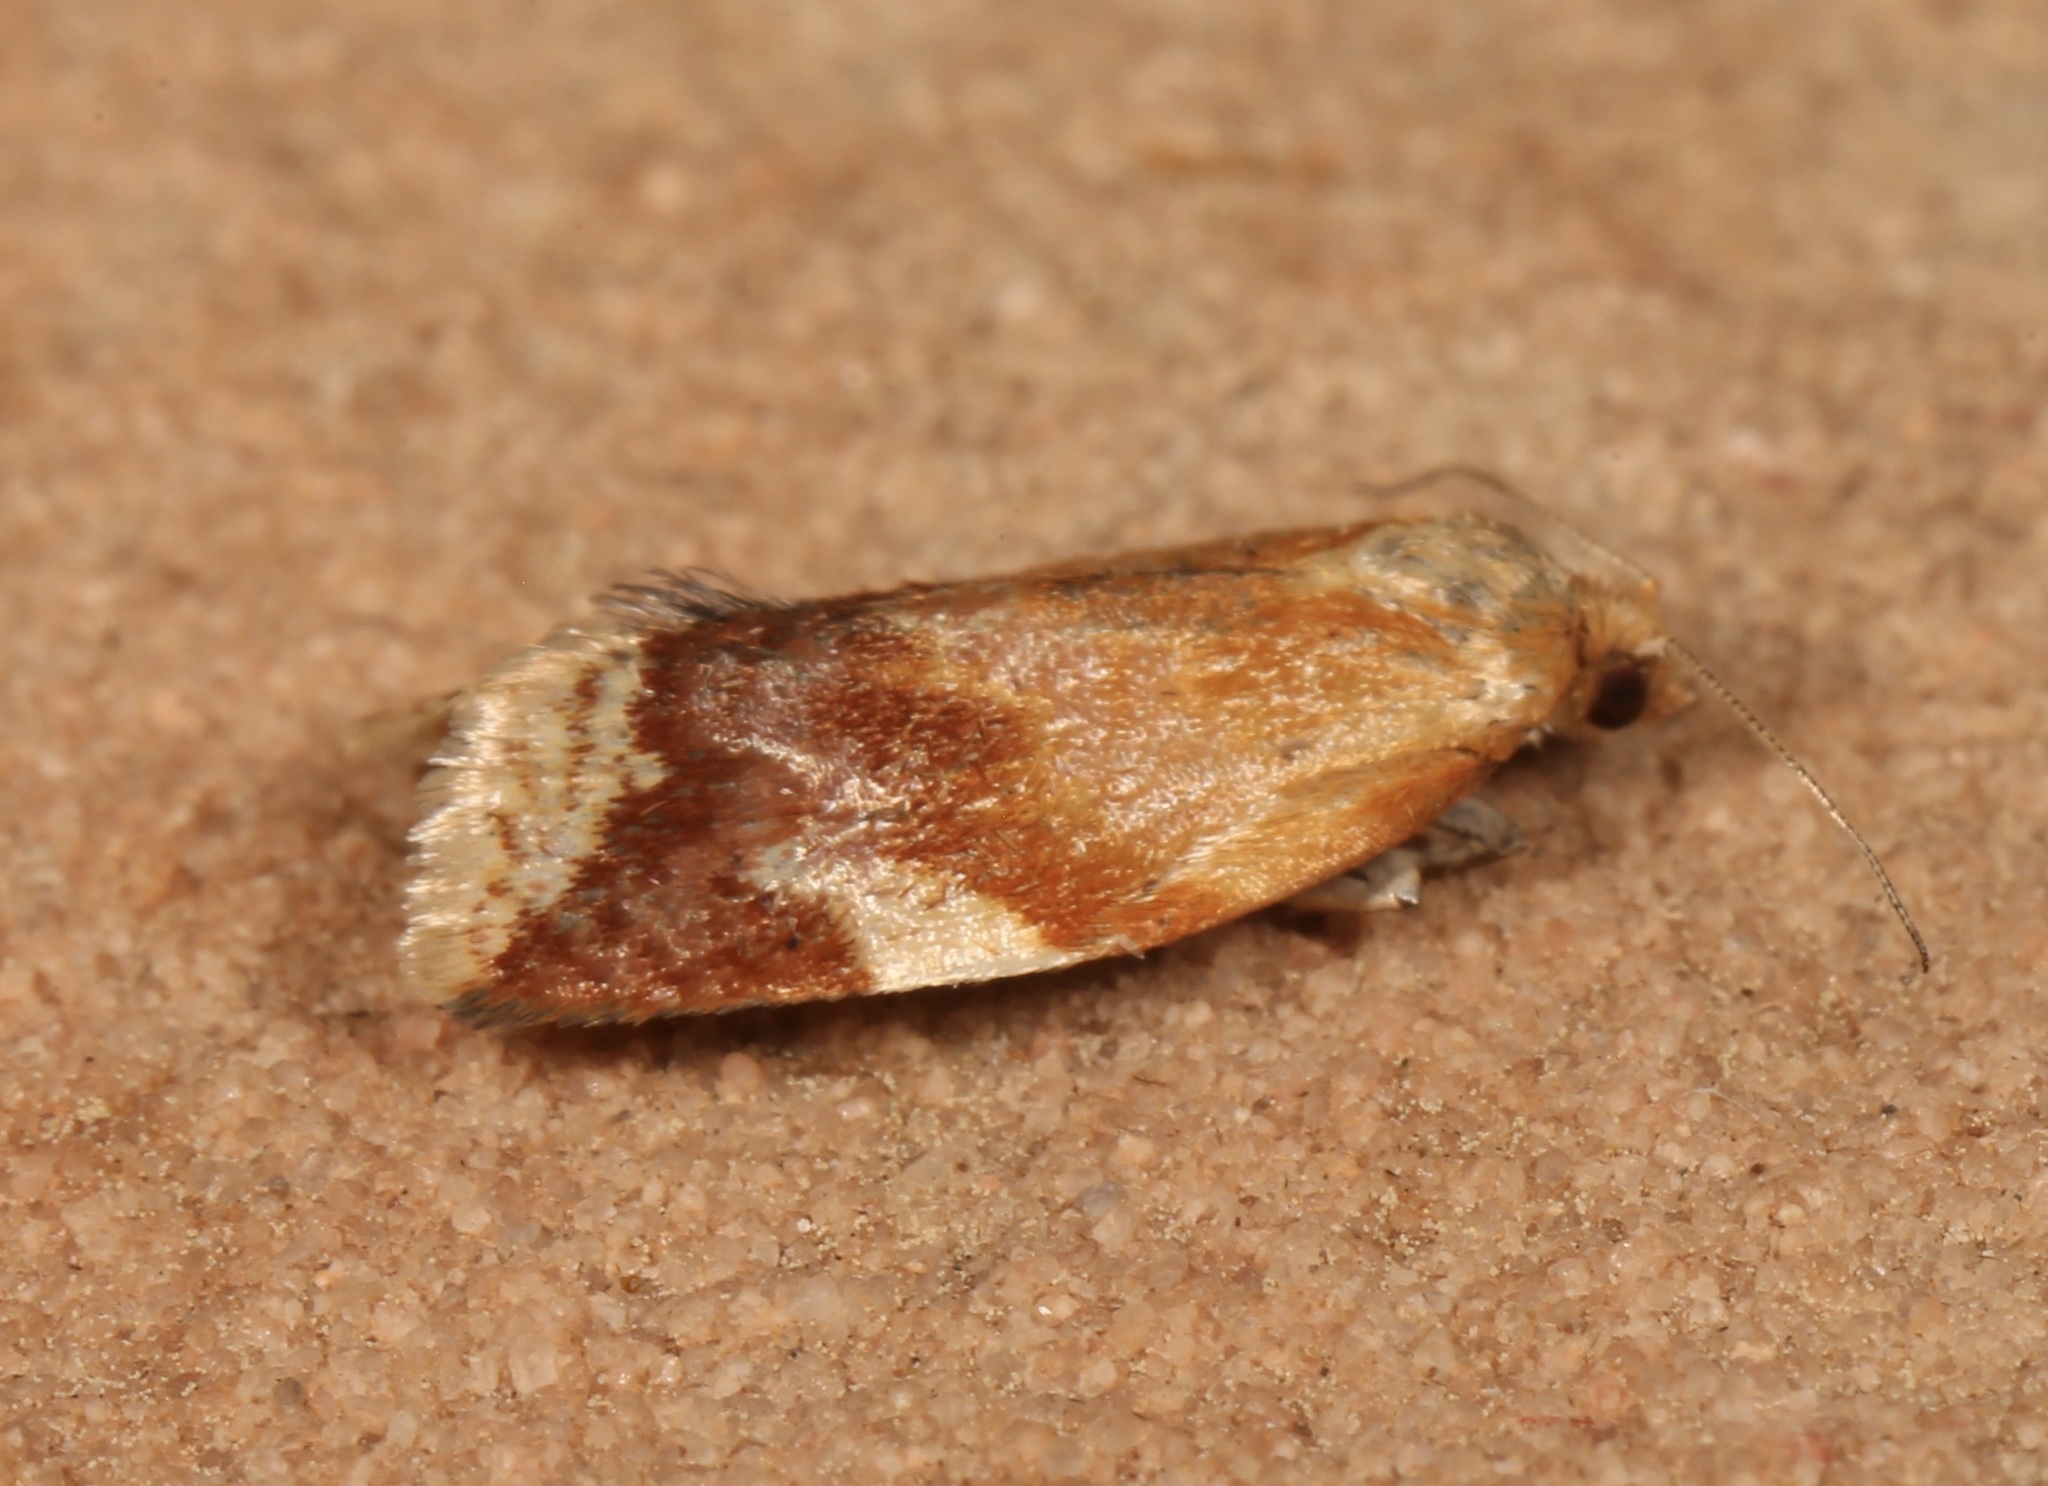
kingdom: Animalia
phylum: Arthropoda
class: Insecta
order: Lepidoptera
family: Tortricidae
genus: Clepsis
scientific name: Clepsis persicana
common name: White triangle tortrix
